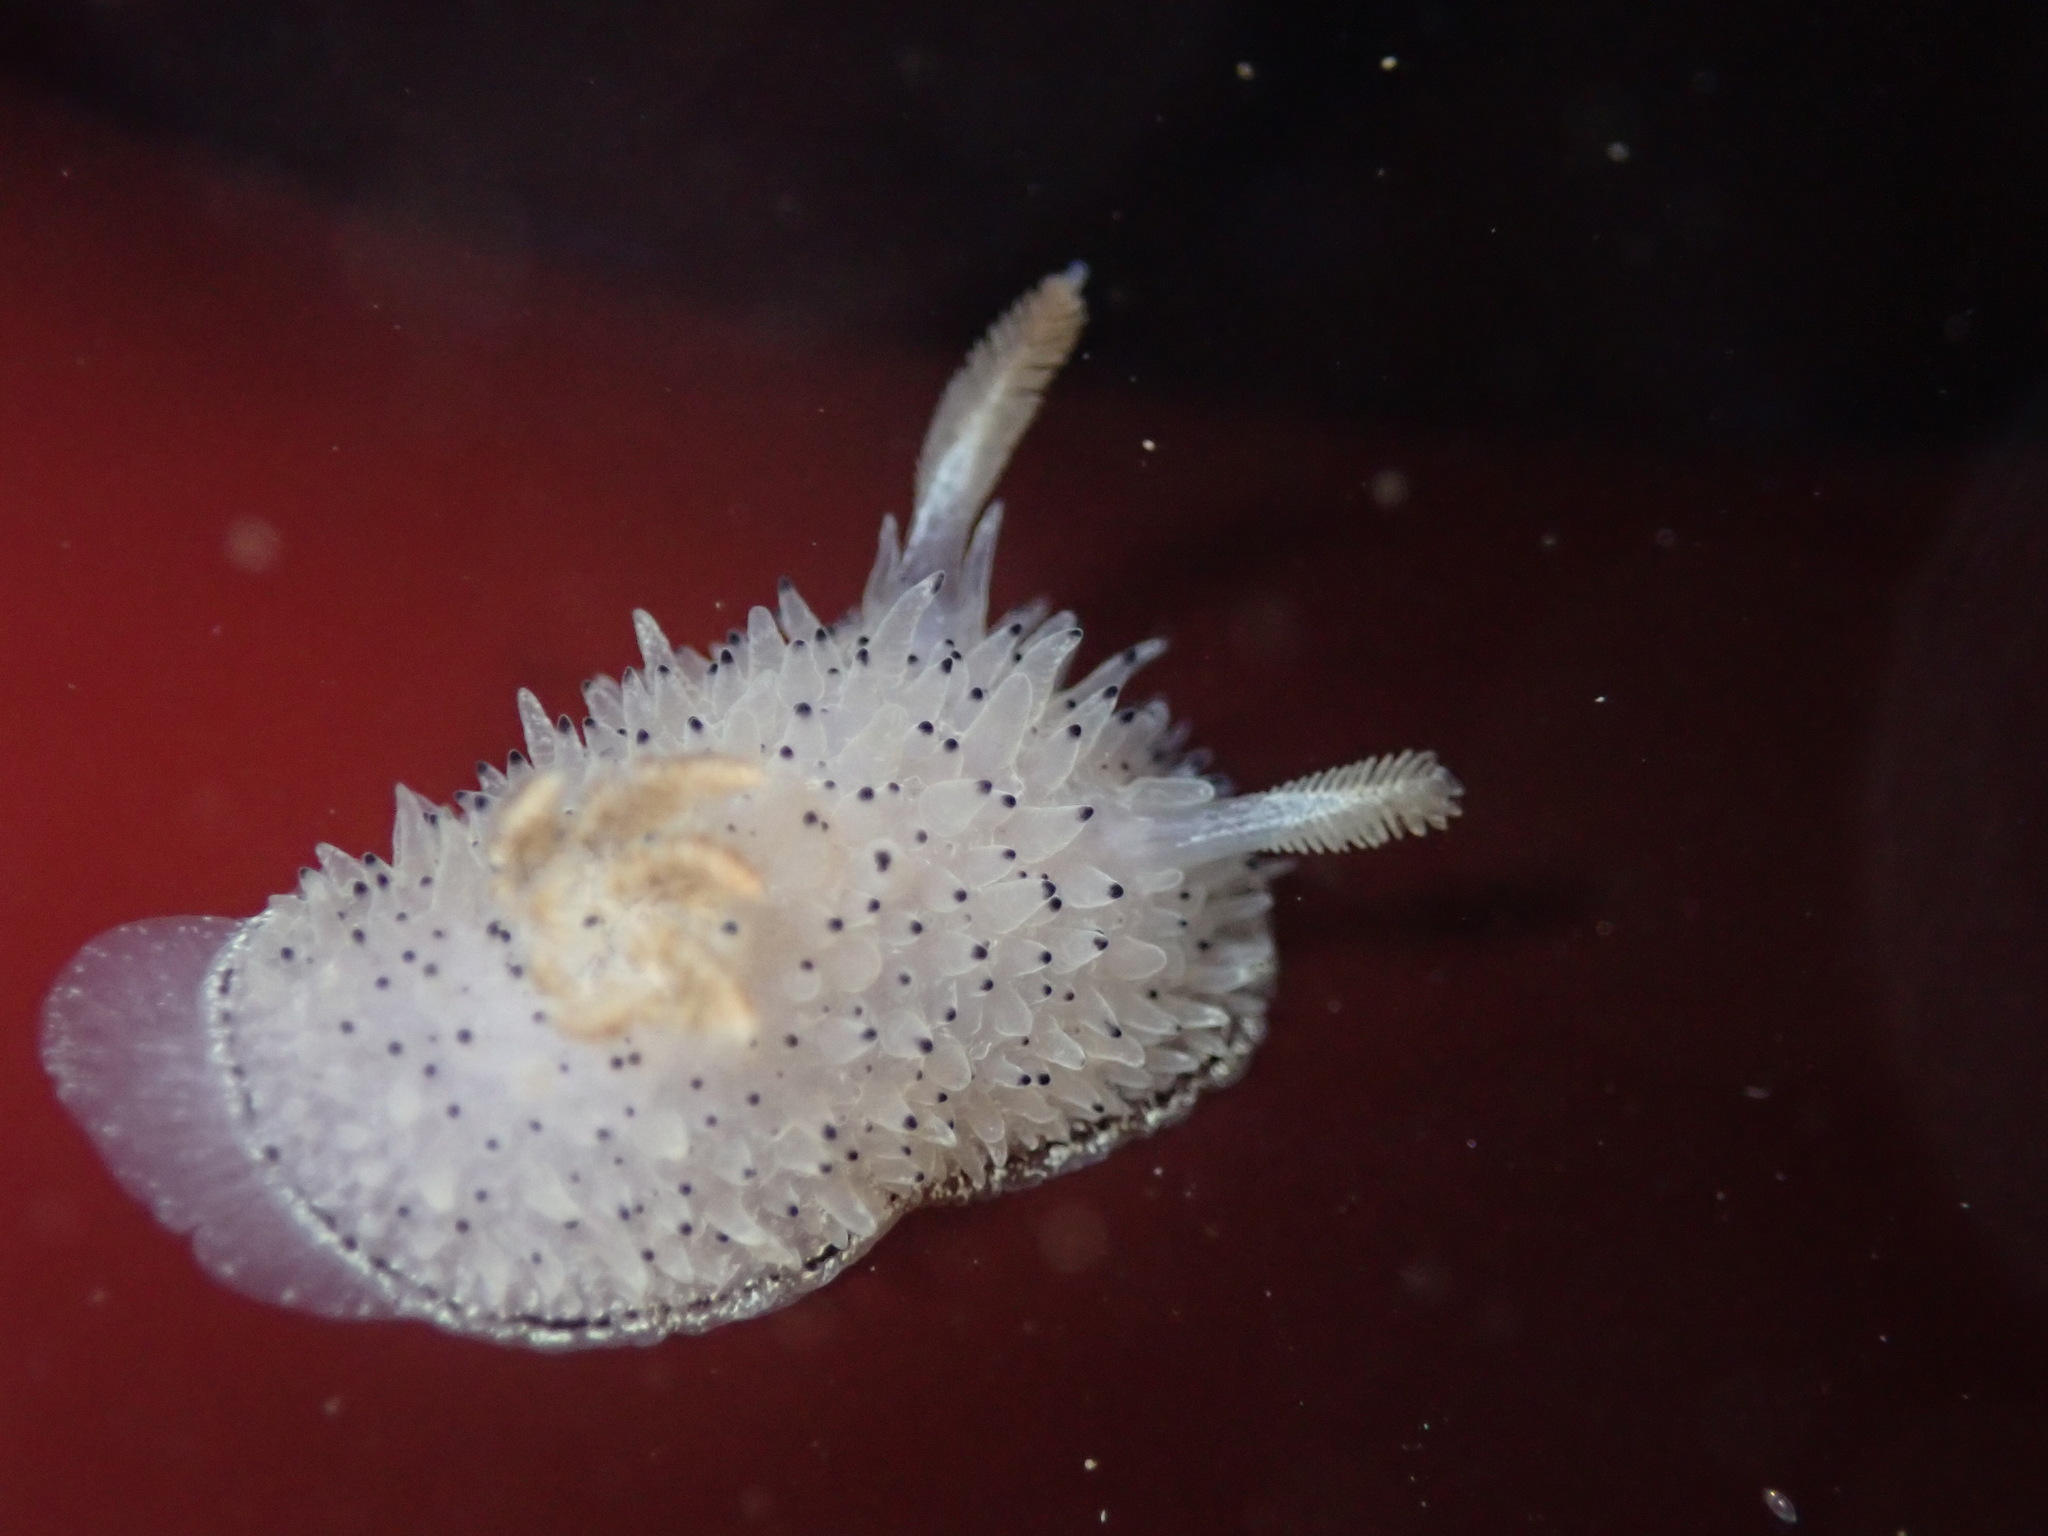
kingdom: Animalia
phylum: Mollusca
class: Gastropoda
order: Nudibranchia
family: Onchidorididae
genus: Acanthodoris
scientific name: Acanthodoris rhodoceras
